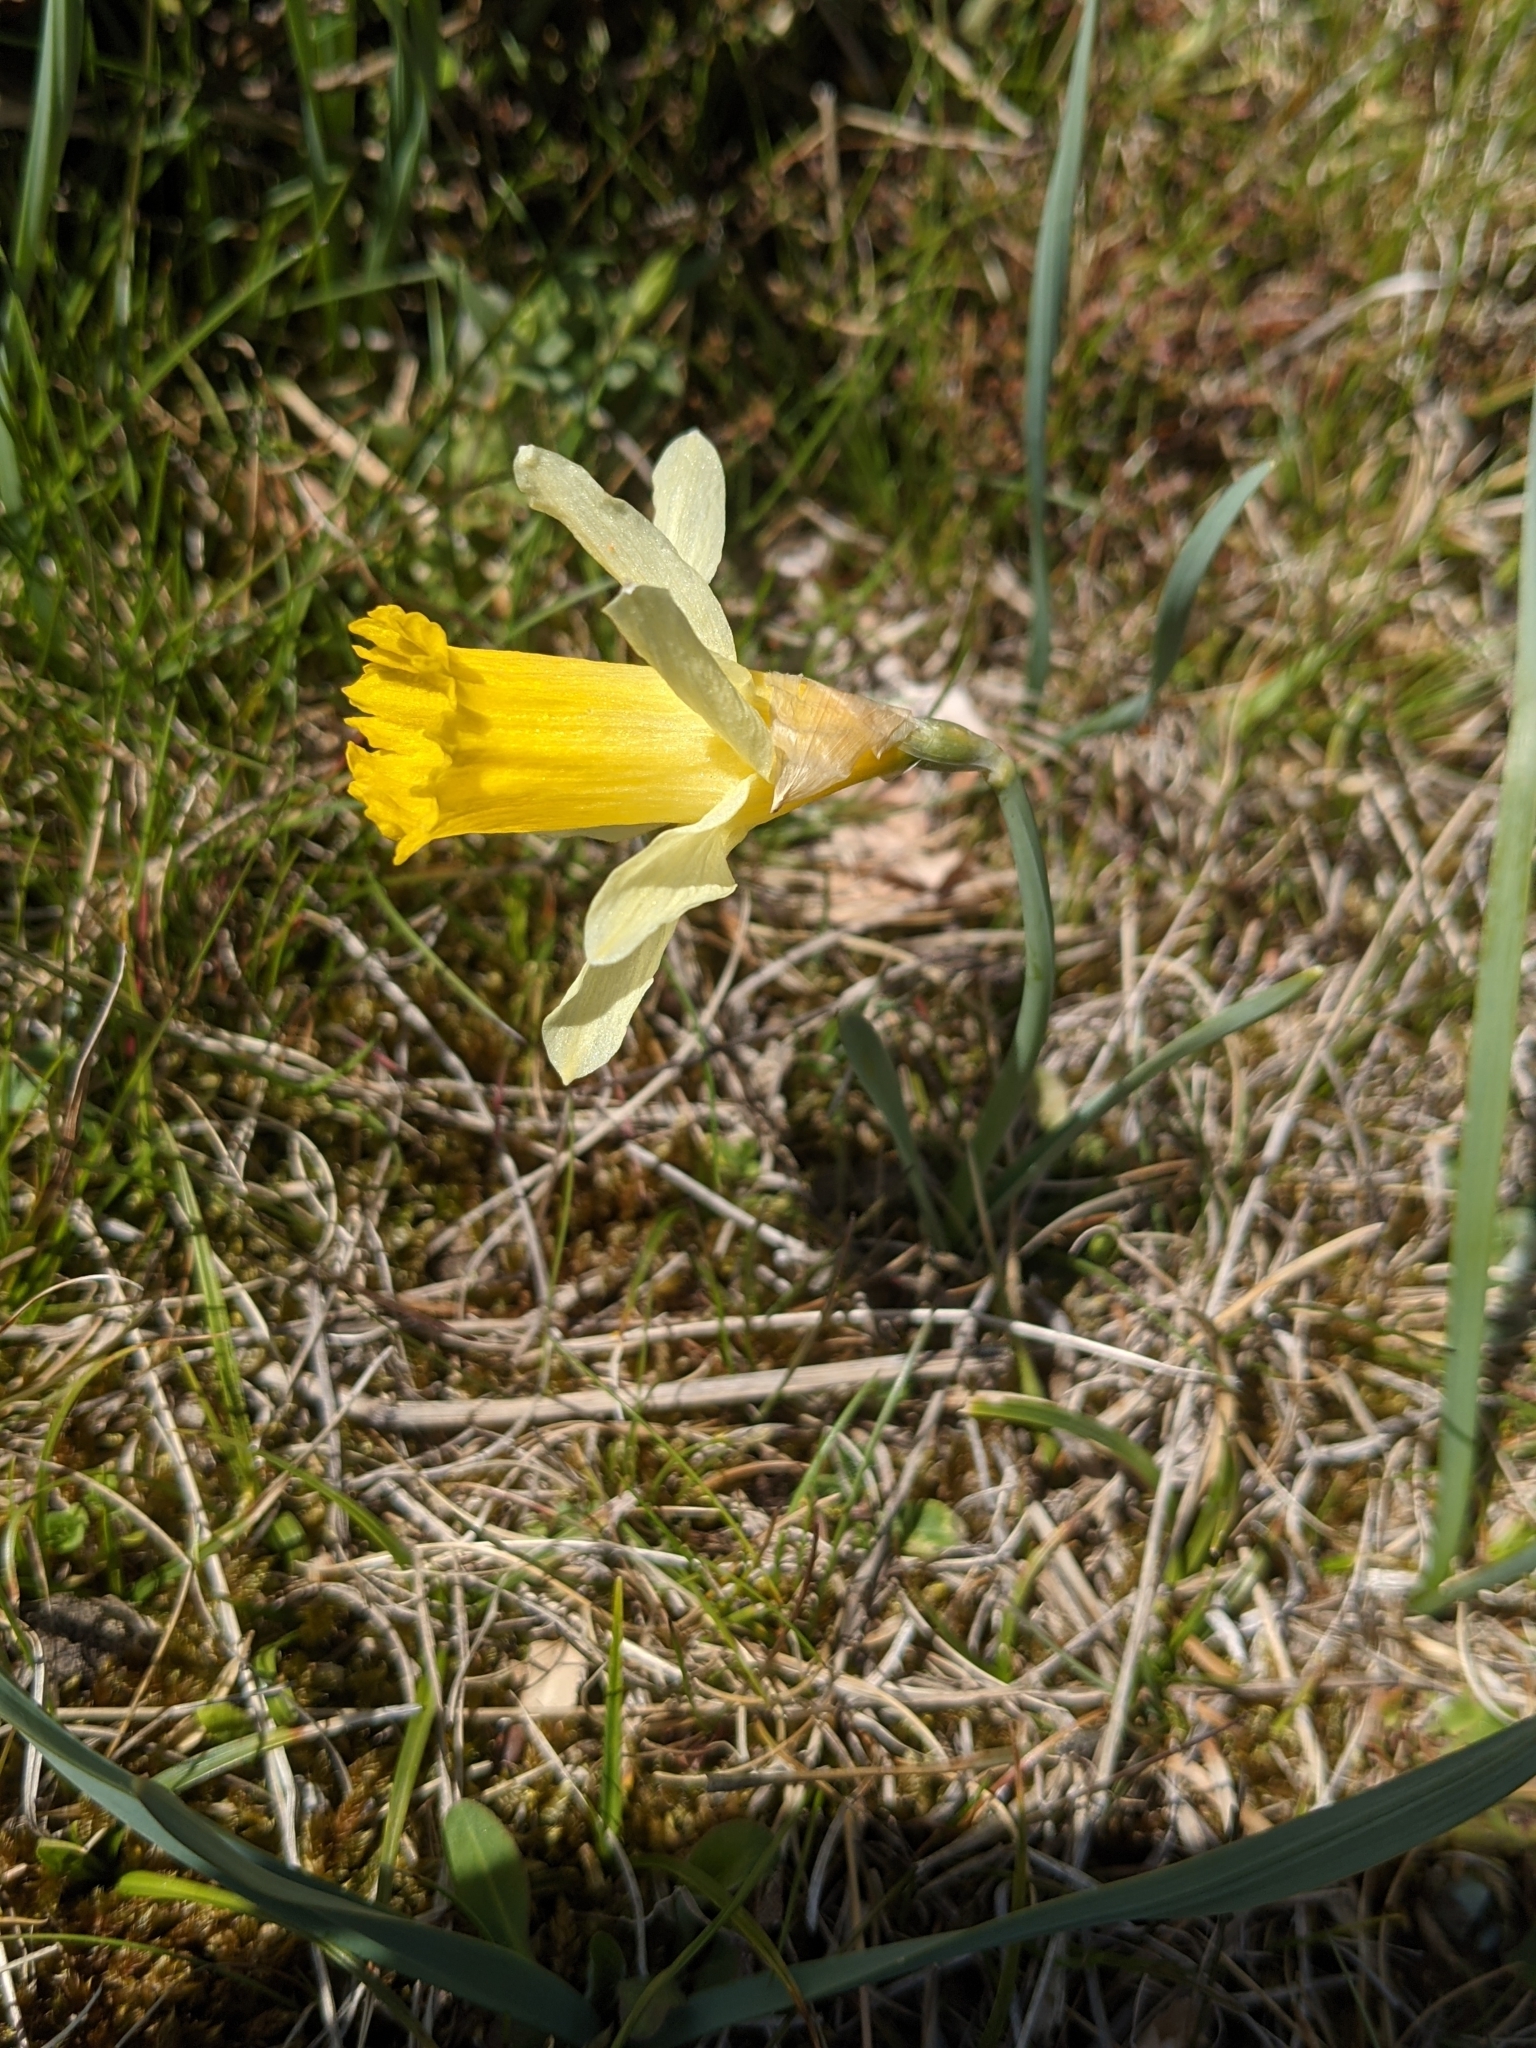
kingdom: Plantae
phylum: Tracheophyta
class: Liliopsida
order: Asparagales
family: Amaryllidaceae
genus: Narcissus
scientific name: Narcissus pseudonarcissus
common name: Daffodil
